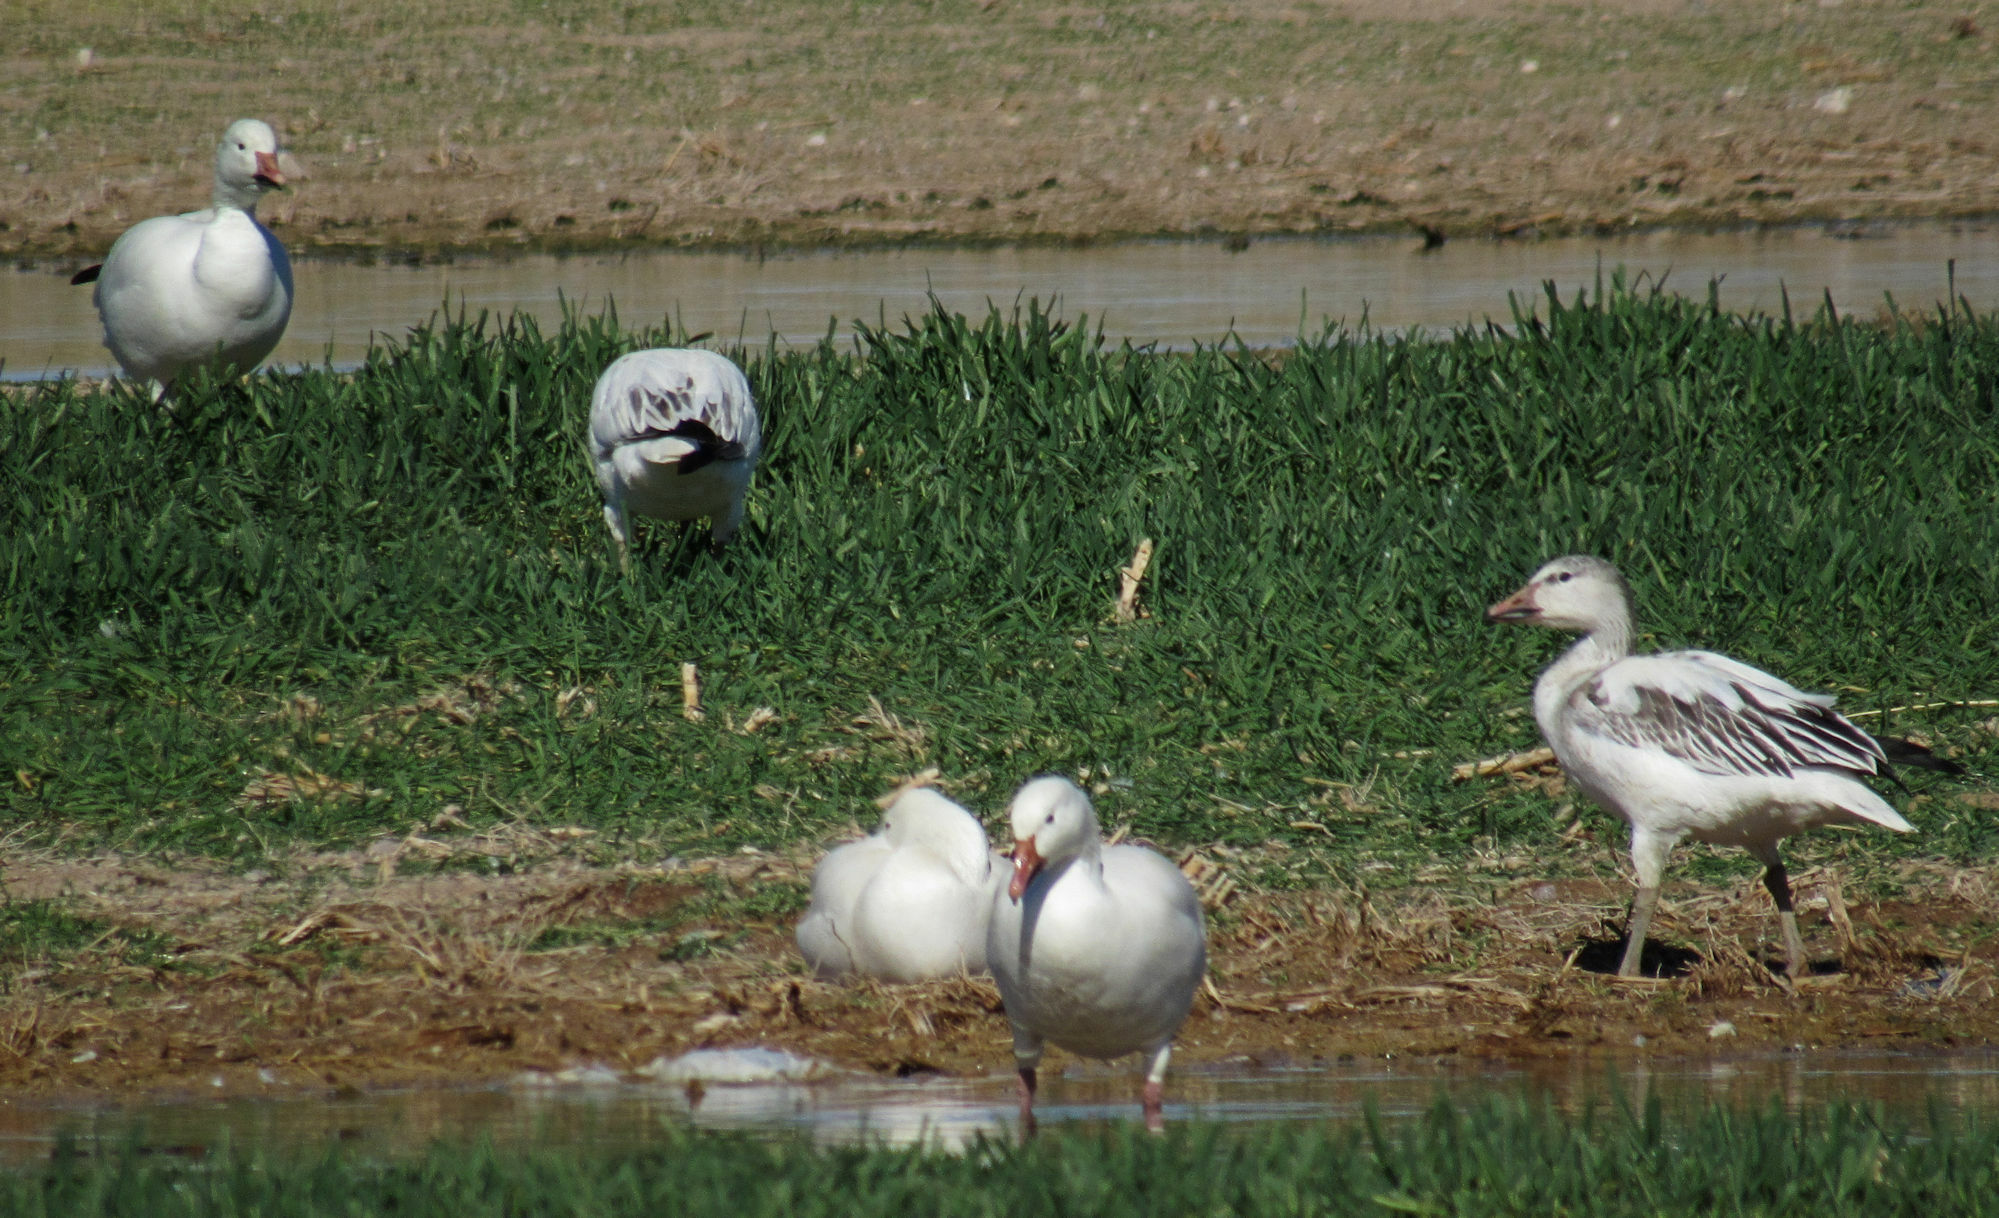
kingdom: Animalia
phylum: Chordata
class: Aves
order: Anseriformes
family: Anatidae
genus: Anser
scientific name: Anser caerulescens
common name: Snow goose
